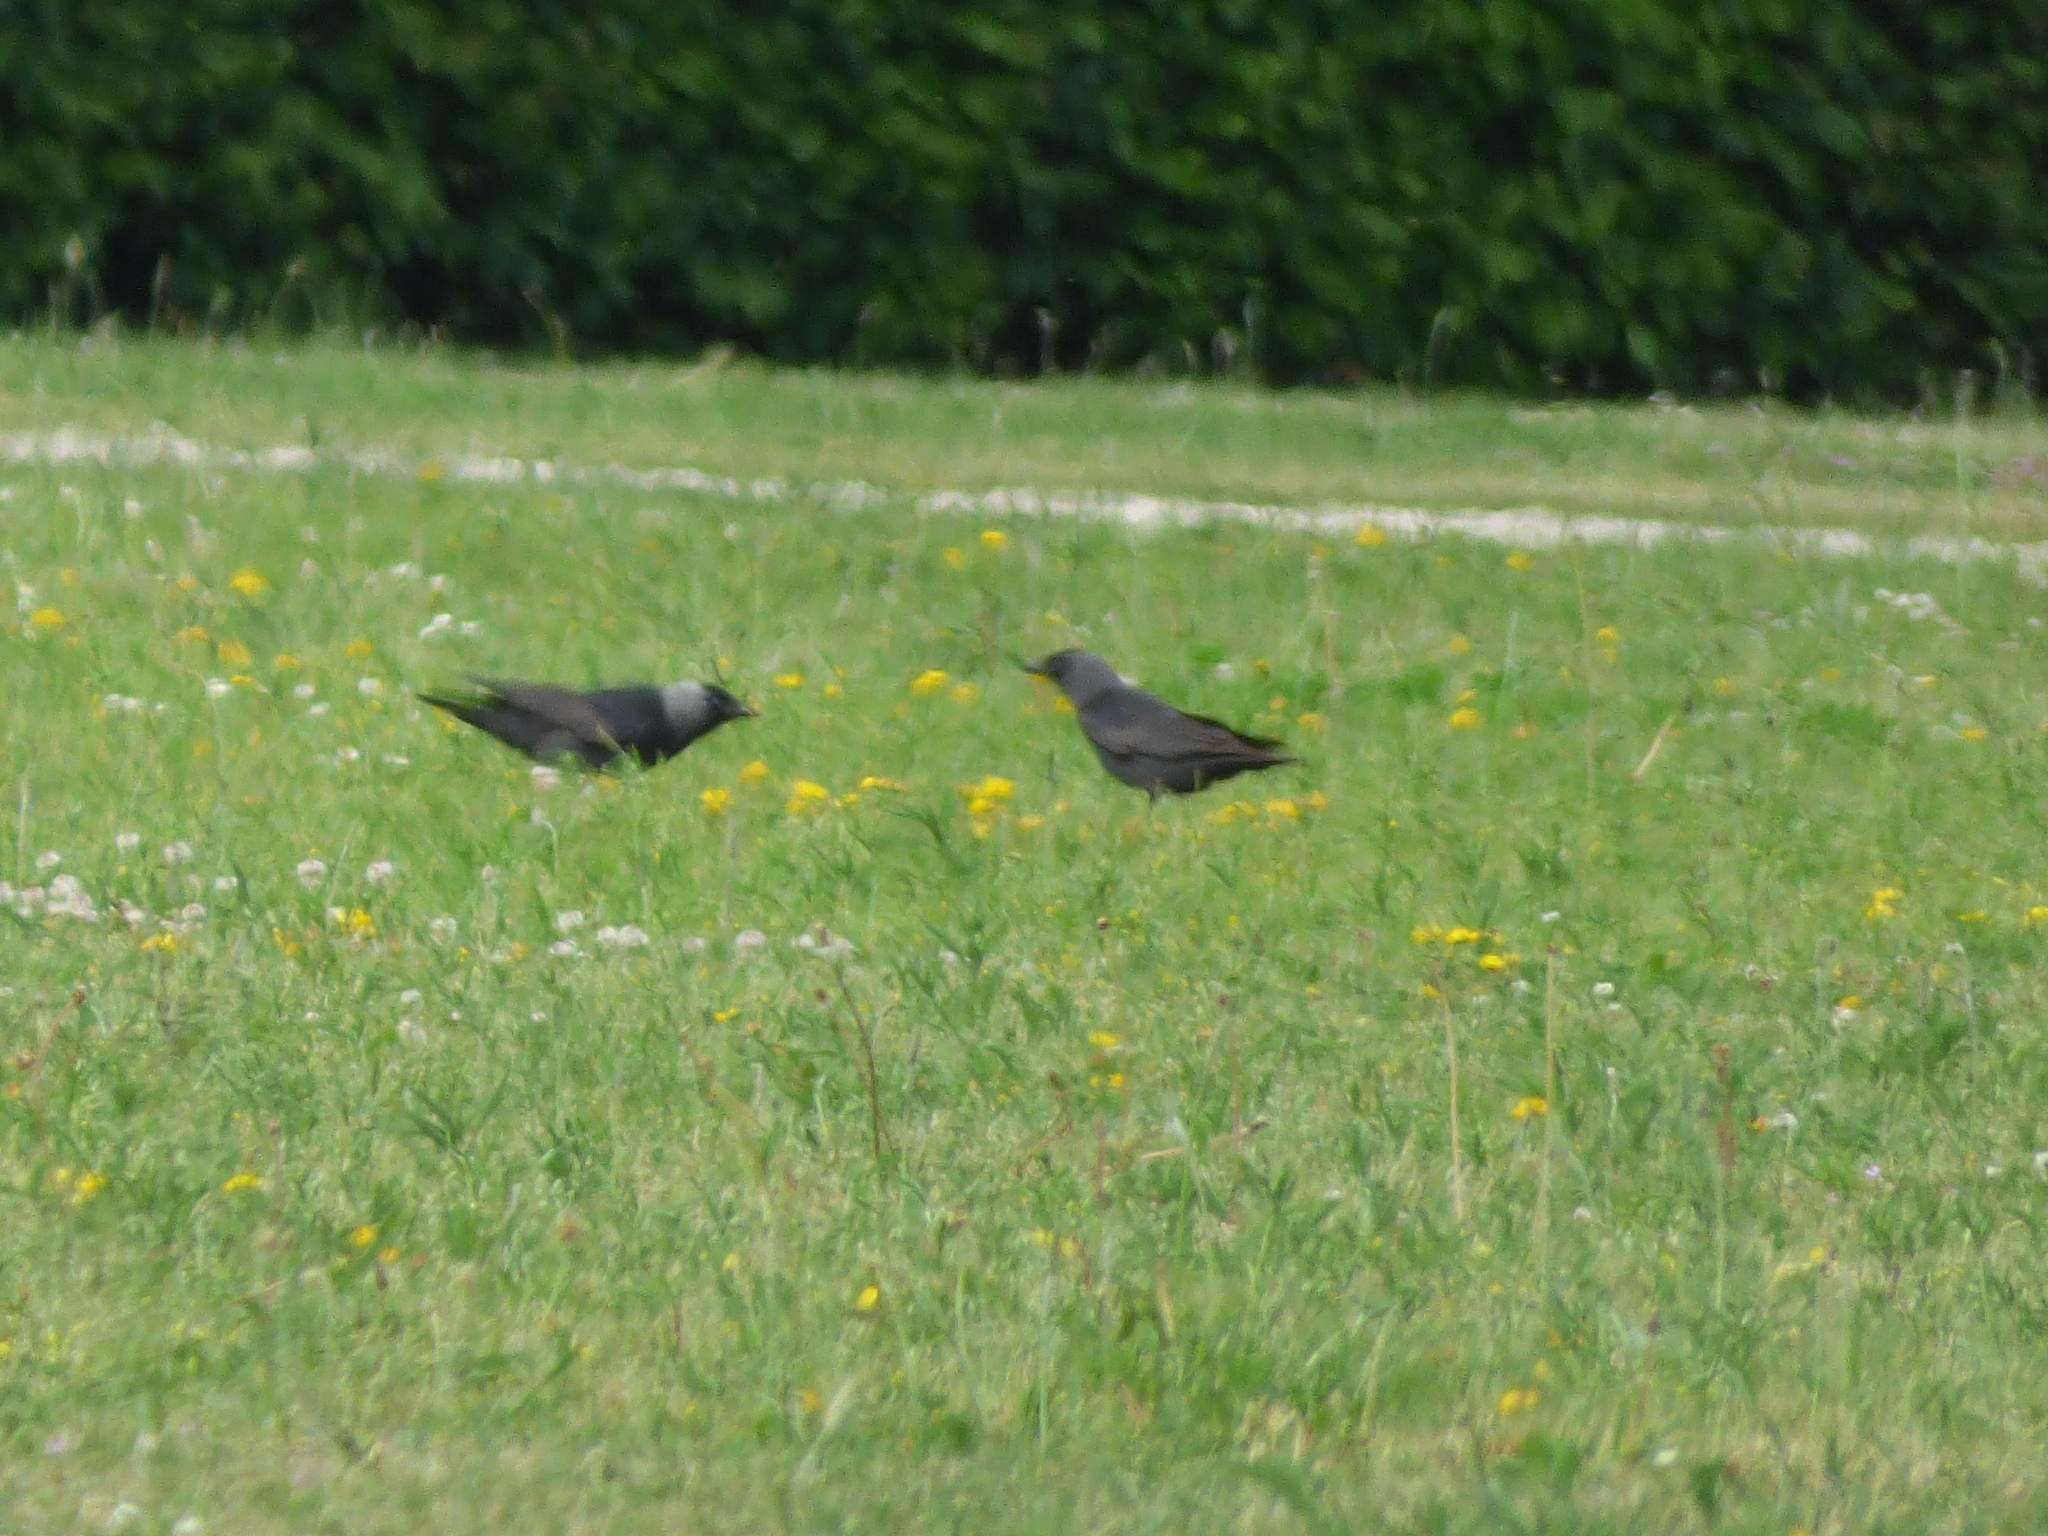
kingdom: Animalia
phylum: Chordata
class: Aves
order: Passeriformes
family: Corvidae
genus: Coloeus
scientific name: Coloeus monedula
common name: Western jackdaw
